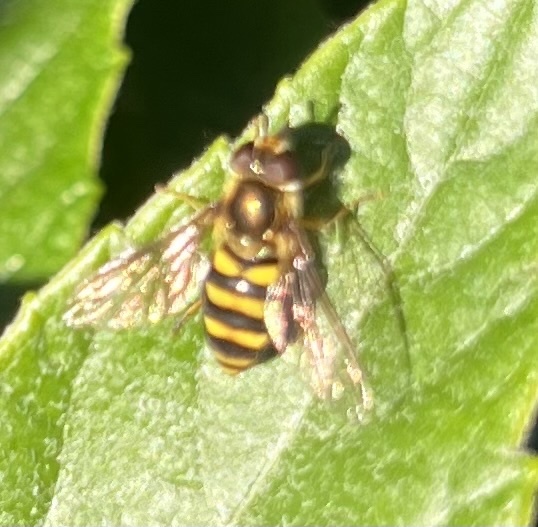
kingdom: Animalia
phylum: Arthropoda
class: Insecta
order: Diptera
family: Syrphidae
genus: Eupeodes
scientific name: Eupeodes
